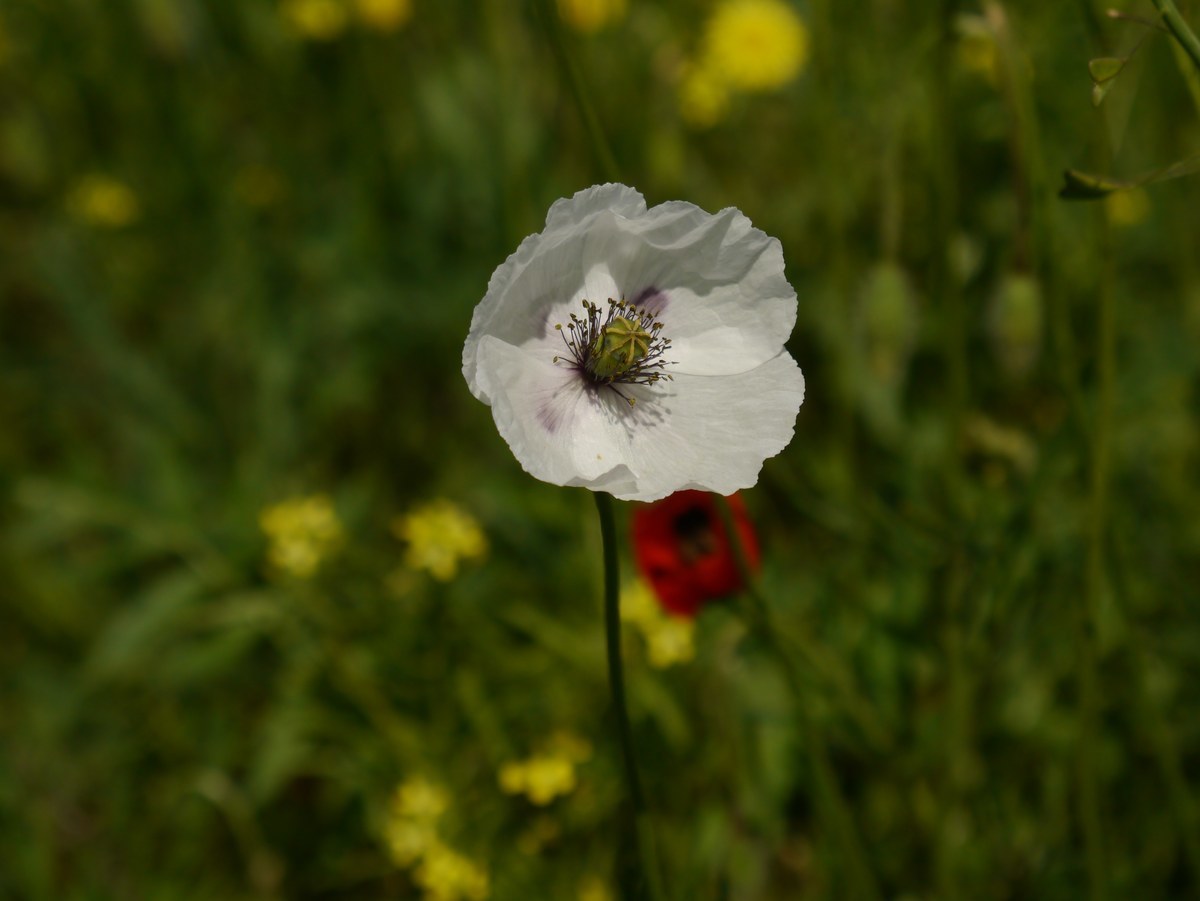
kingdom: Plantae
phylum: Tracheophyta
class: Magnoliopsida
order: Ranunculales
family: Papaveraceae
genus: Papaver
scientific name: Papaver albiflorum
